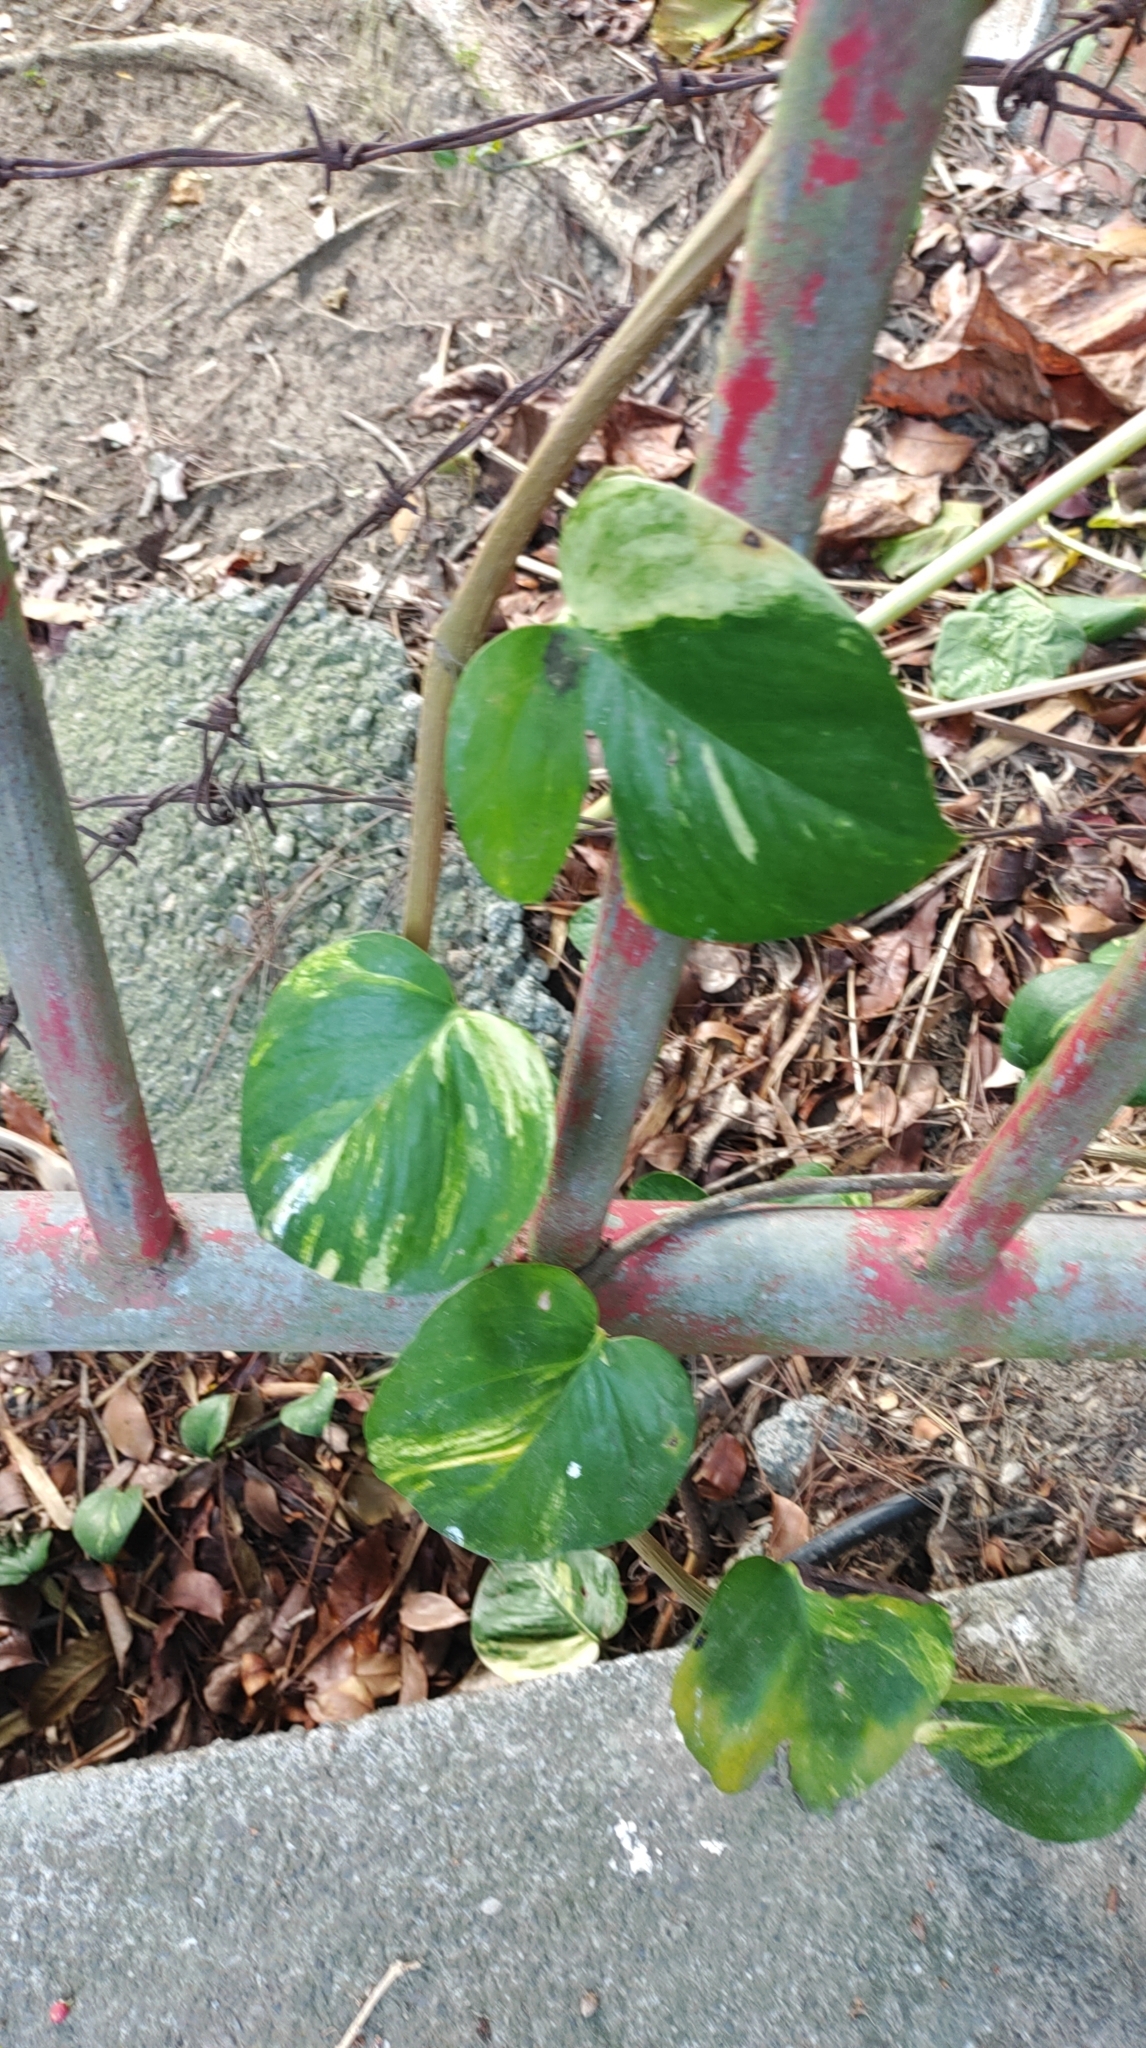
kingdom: Plantae
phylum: Tracheophyta
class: Liliopsida
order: Alismatales
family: Araceae
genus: Epipremnum
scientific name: Epipremnum aureum
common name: Golden hunter's-robe
